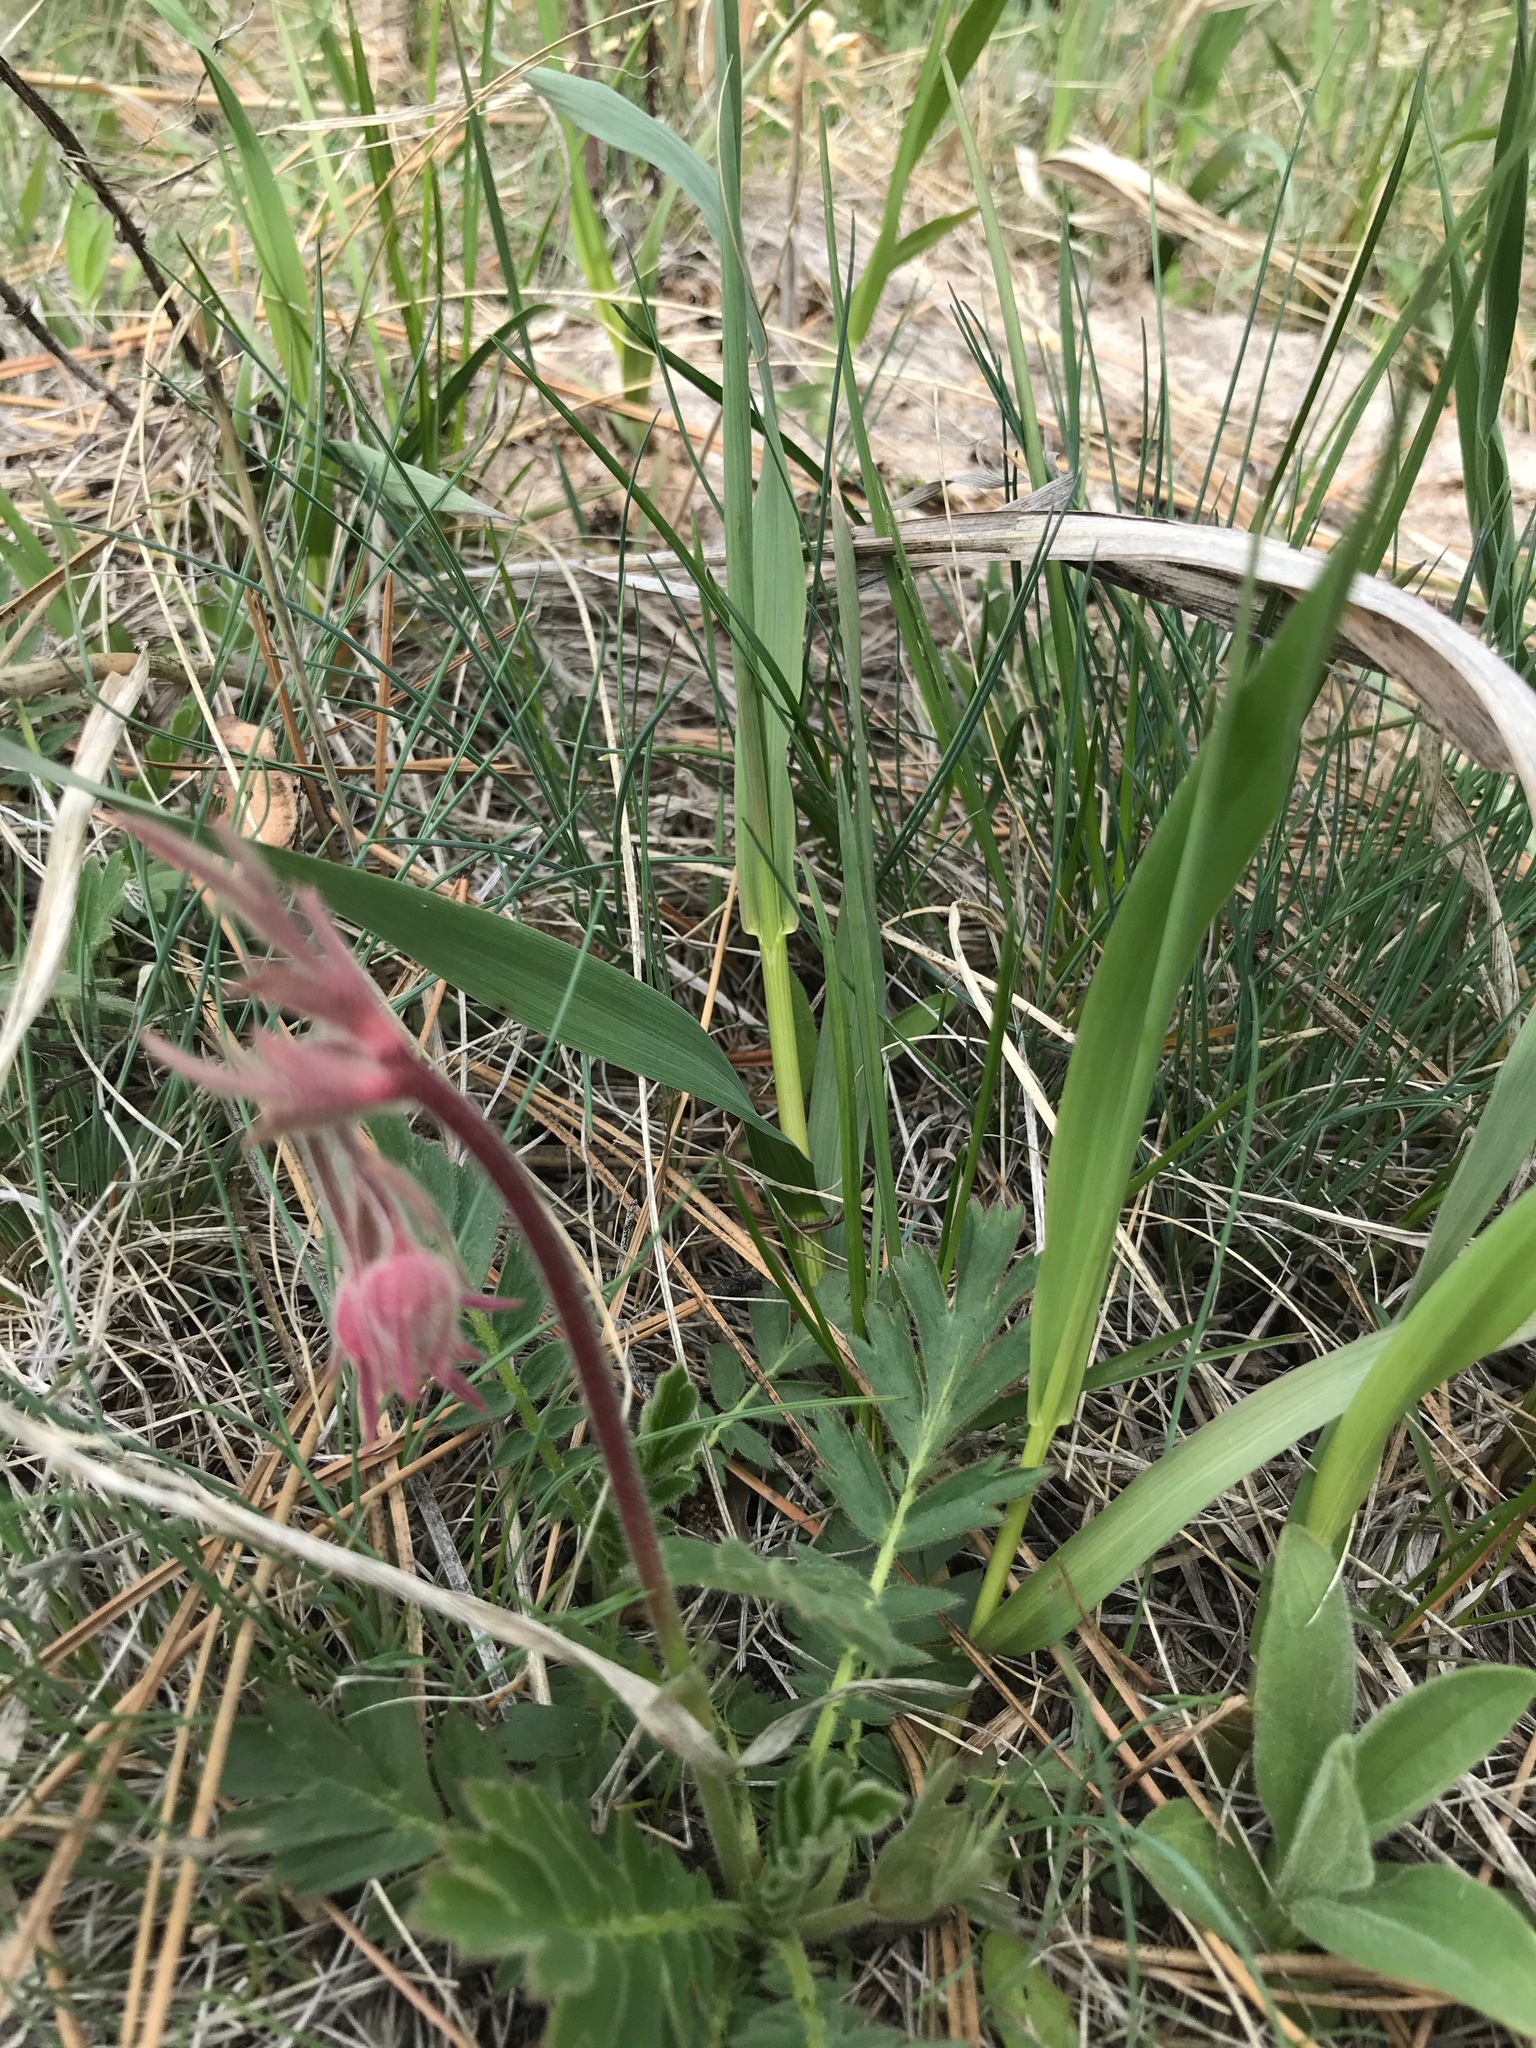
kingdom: Plantae
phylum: Tracheophyta
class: Magnoliopsida
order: Rosales
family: Rosaceae
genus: Geum
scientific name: Geum triflorum
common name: Old man's whiskers
